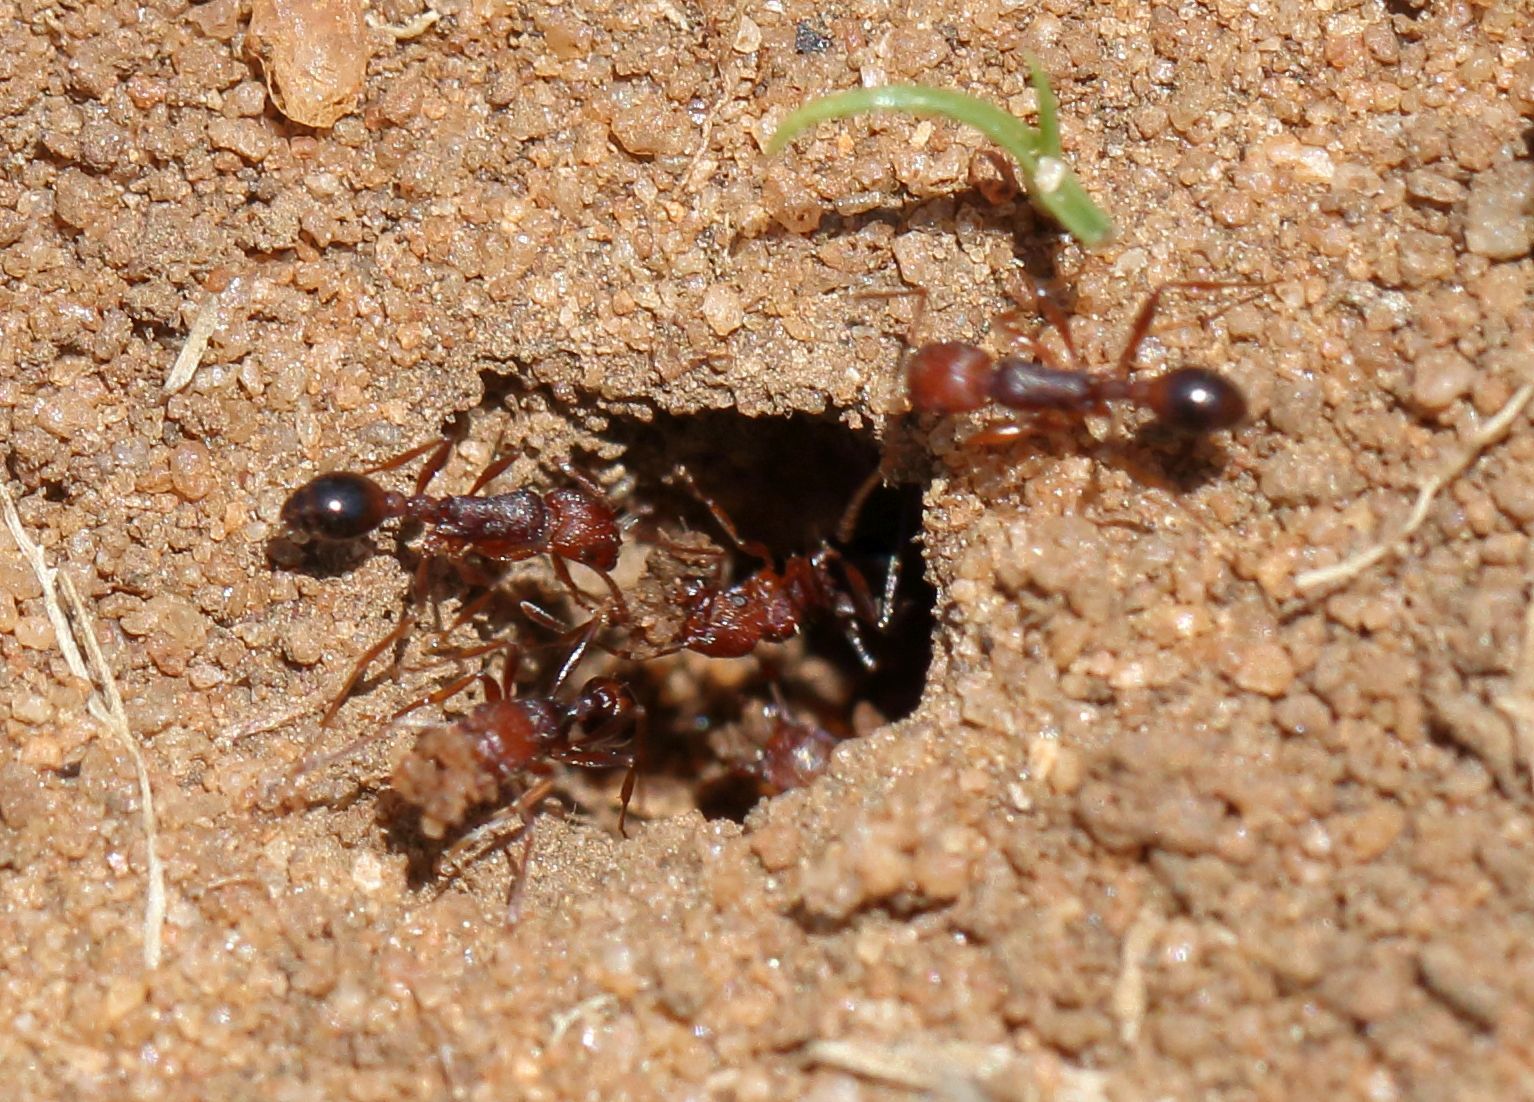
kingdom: Animalia
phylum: Arthropoda
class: Insecta
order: Hymenoptera
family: Formicidae
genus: Tetramorium
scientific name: Tetramorium sericeiventre
